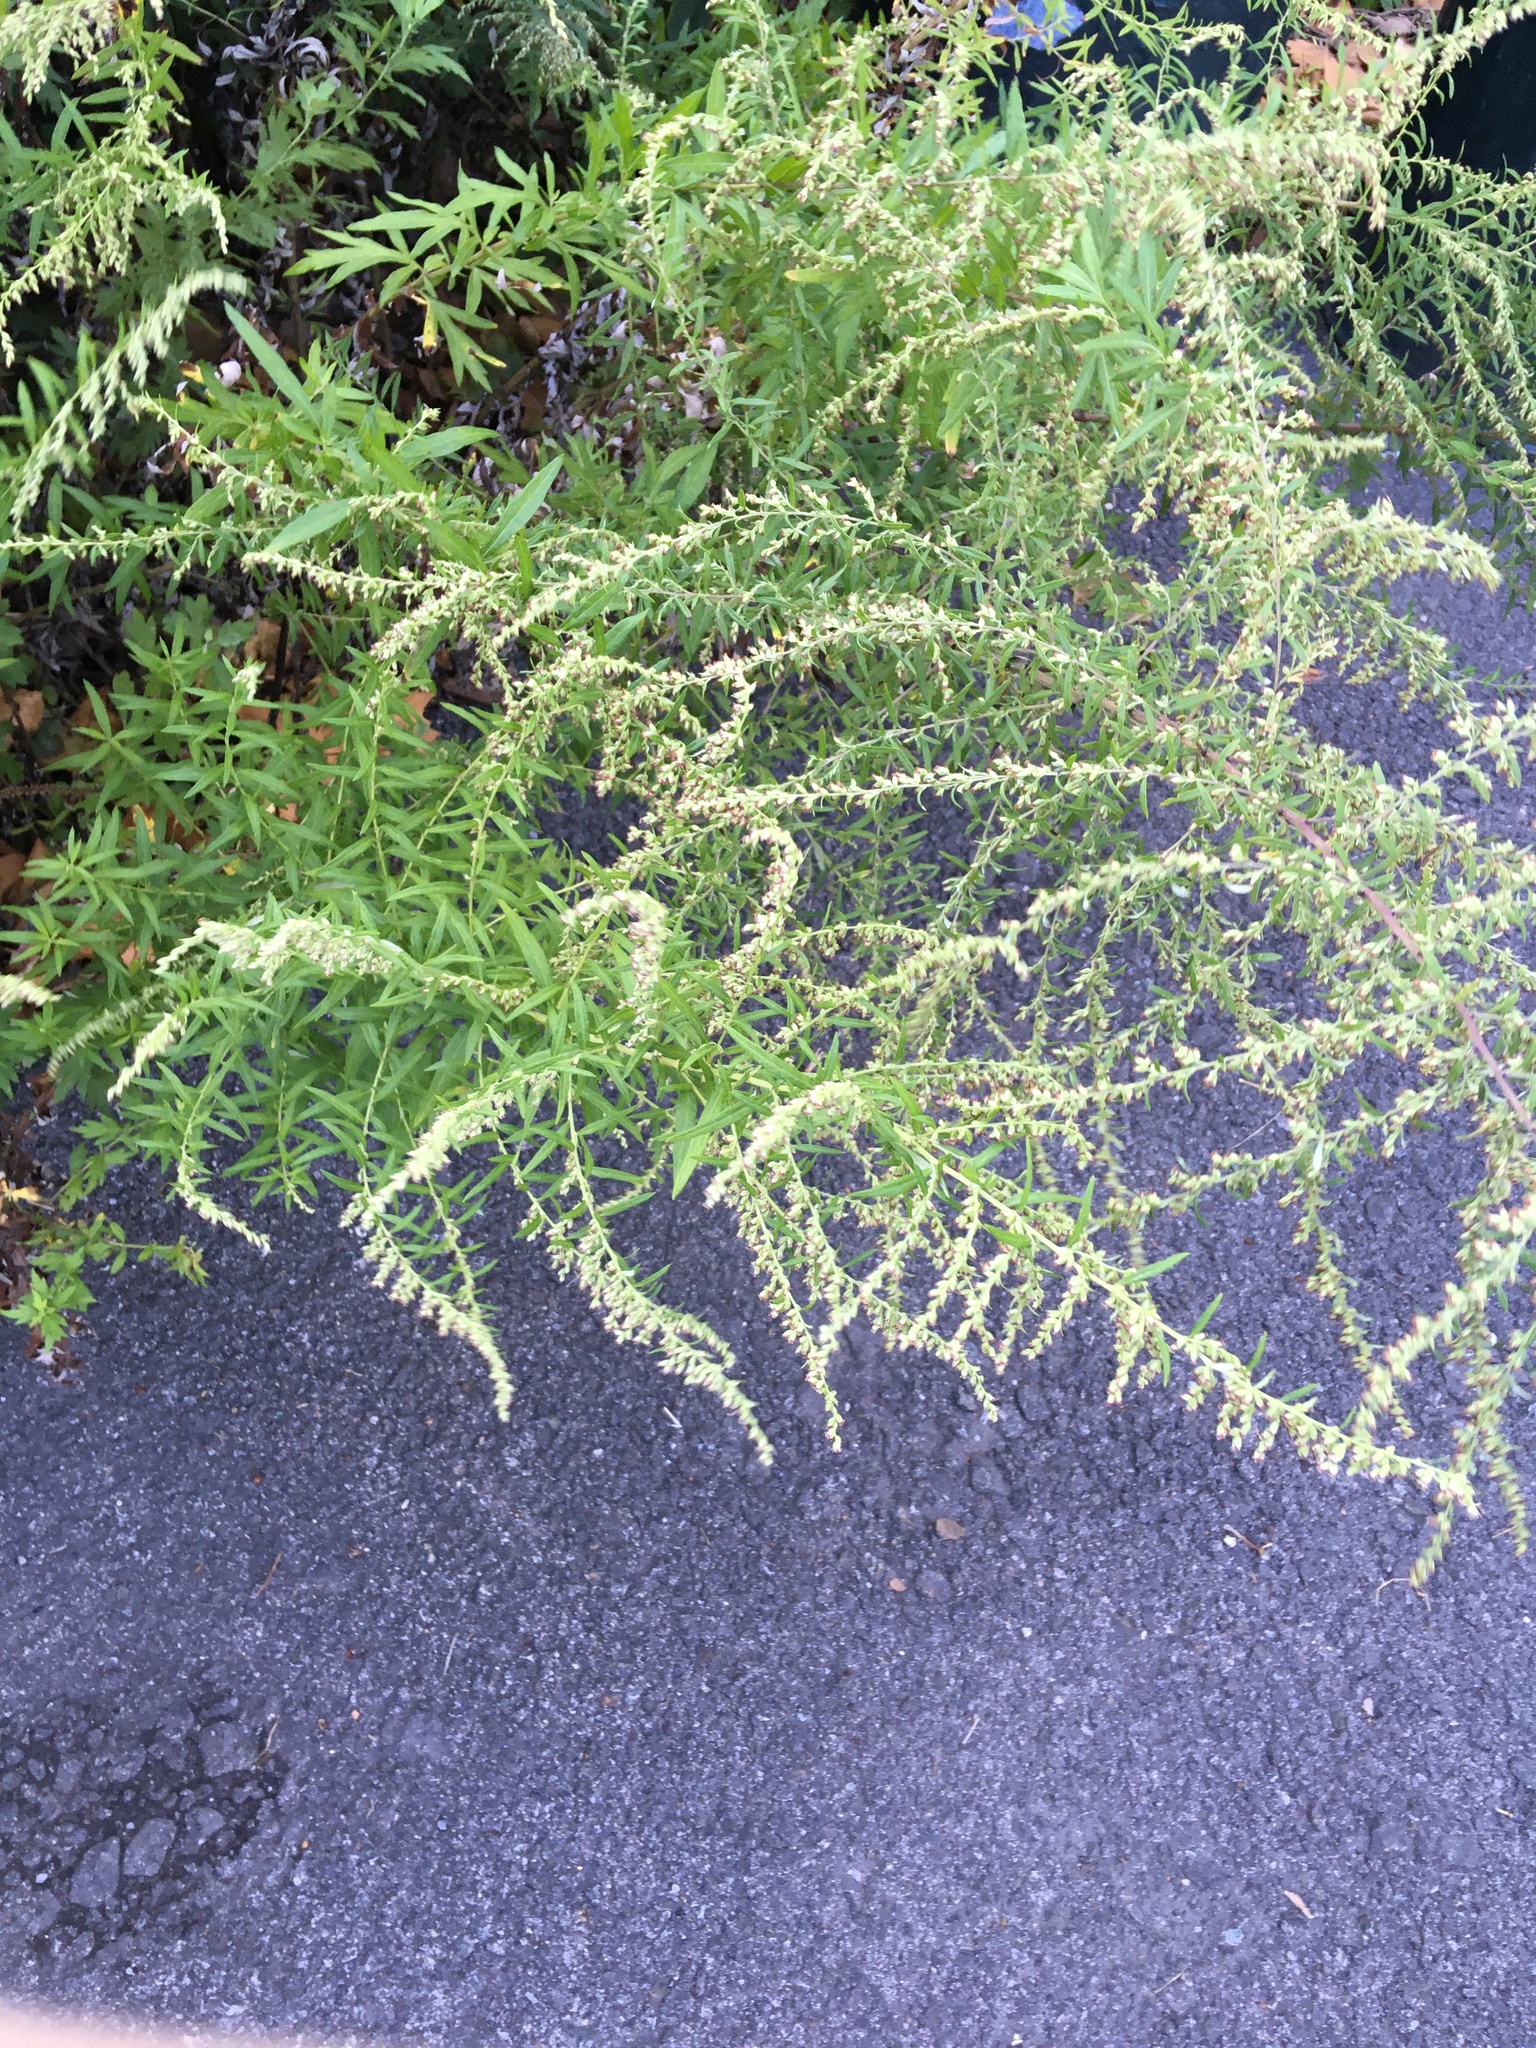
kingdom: Plantae
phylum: Tracheophyta
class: Magnoliopsida
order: Asterales
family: Asteraceae
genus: Artemisia
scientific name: Artemisia vulgaris
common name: Mugwort
